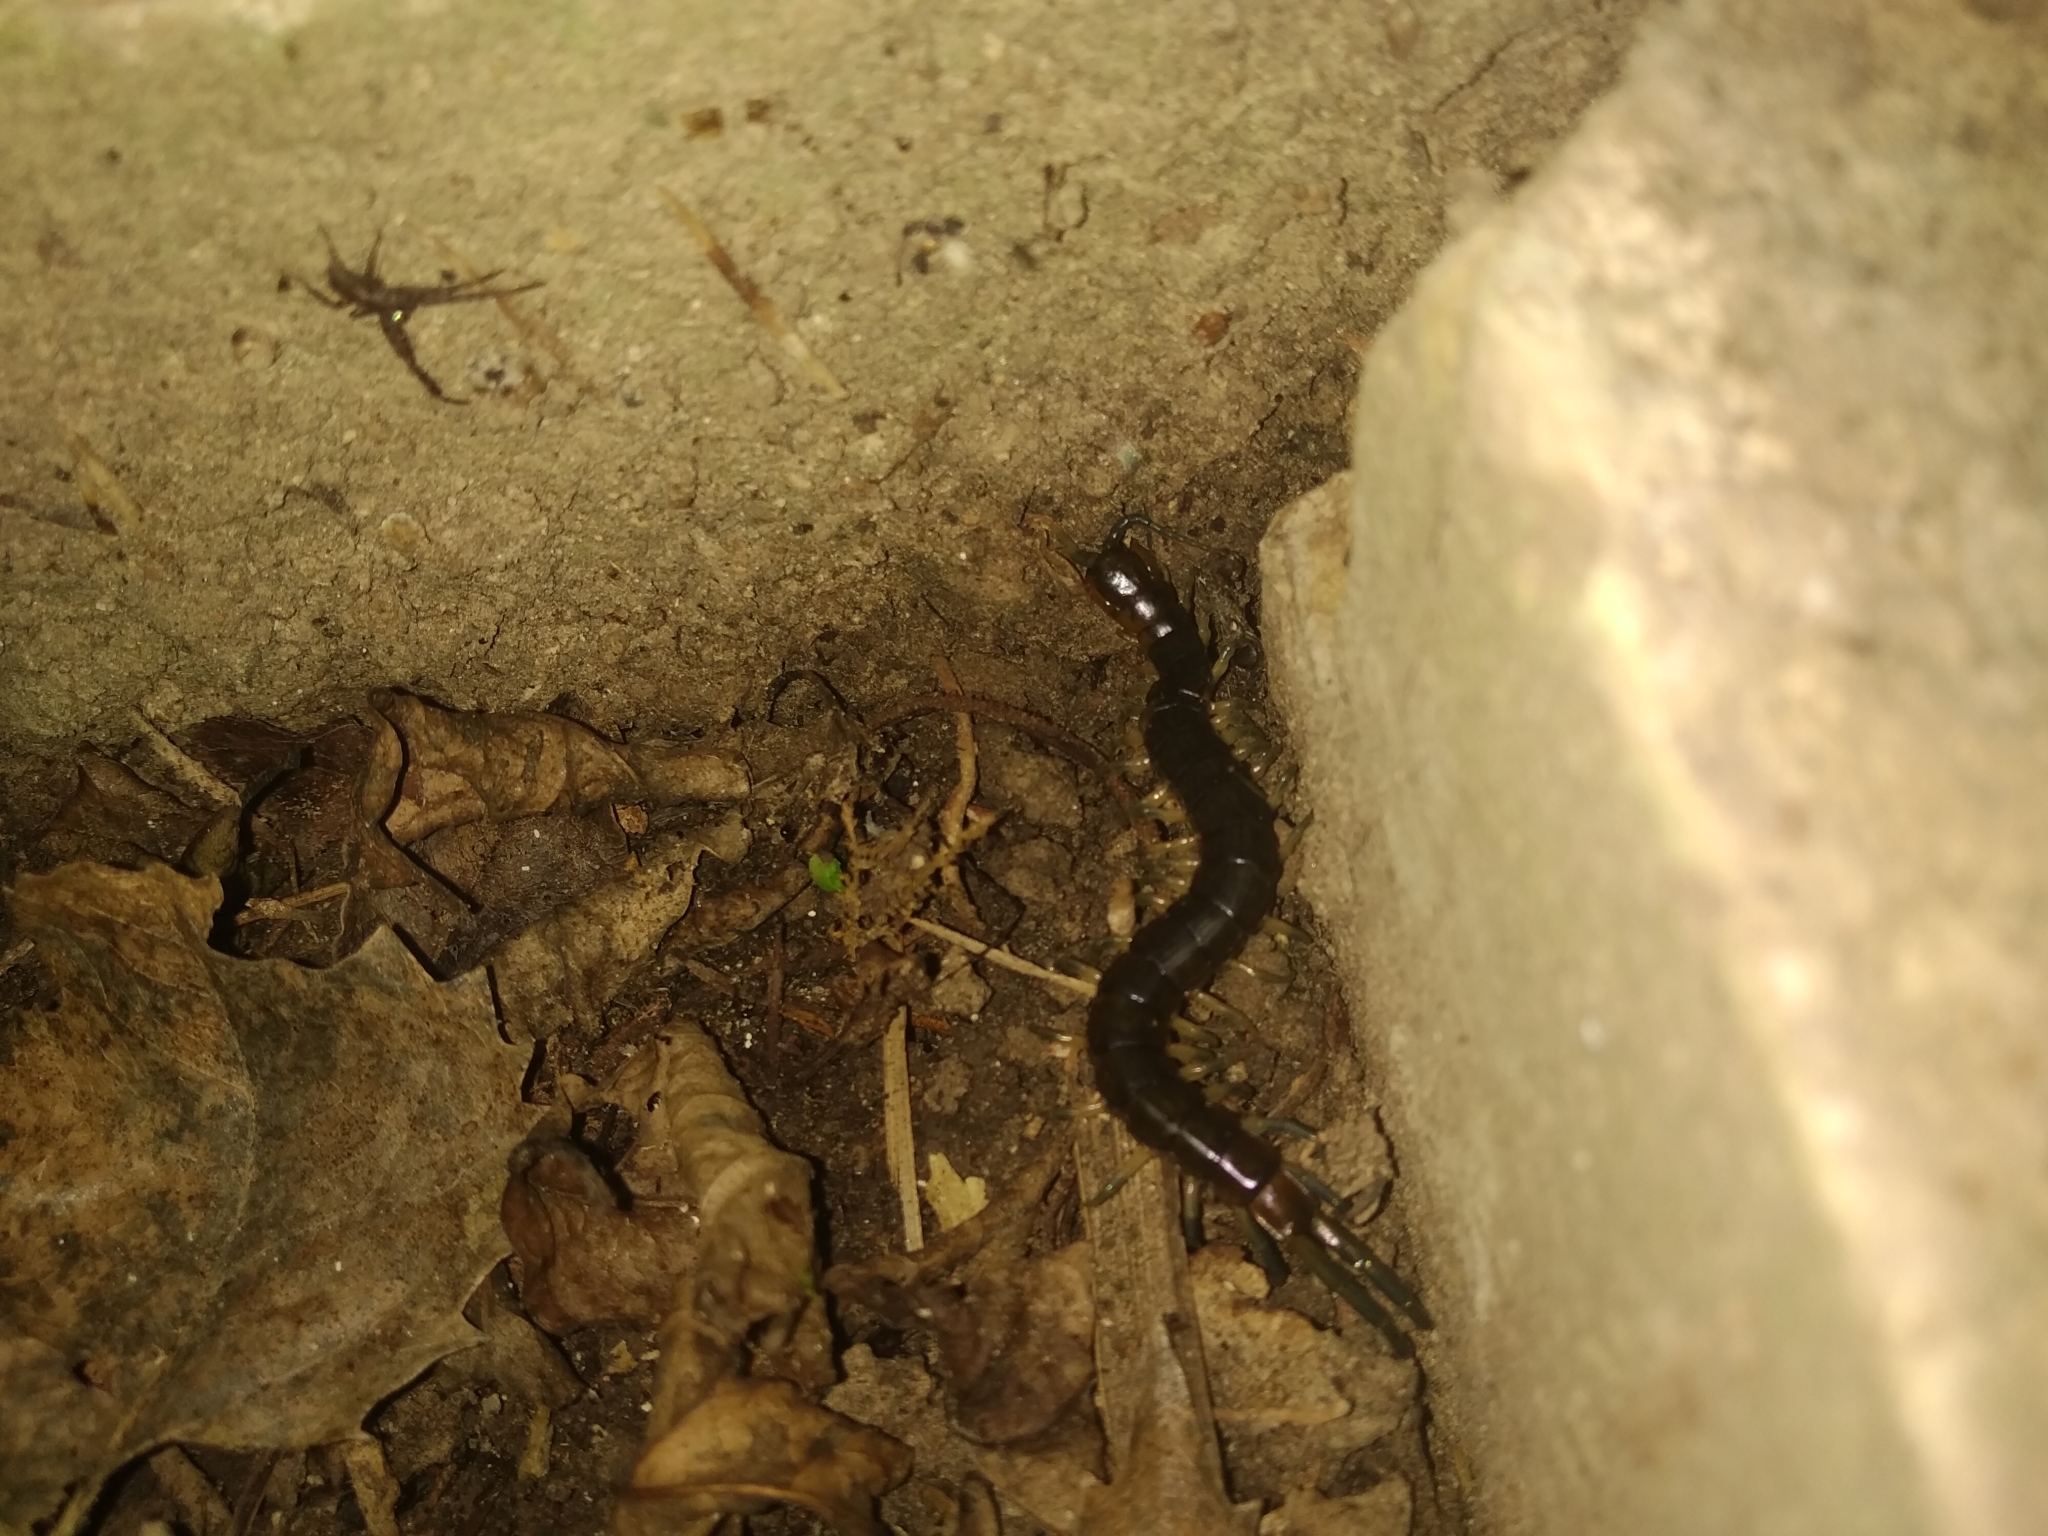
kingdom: Animalia
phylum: Arthropoda
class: Chilopoda
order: Scolopendromorpha
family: Scolopendridae
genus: Cormocephalus
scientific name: Cormocephalus rubriceps
